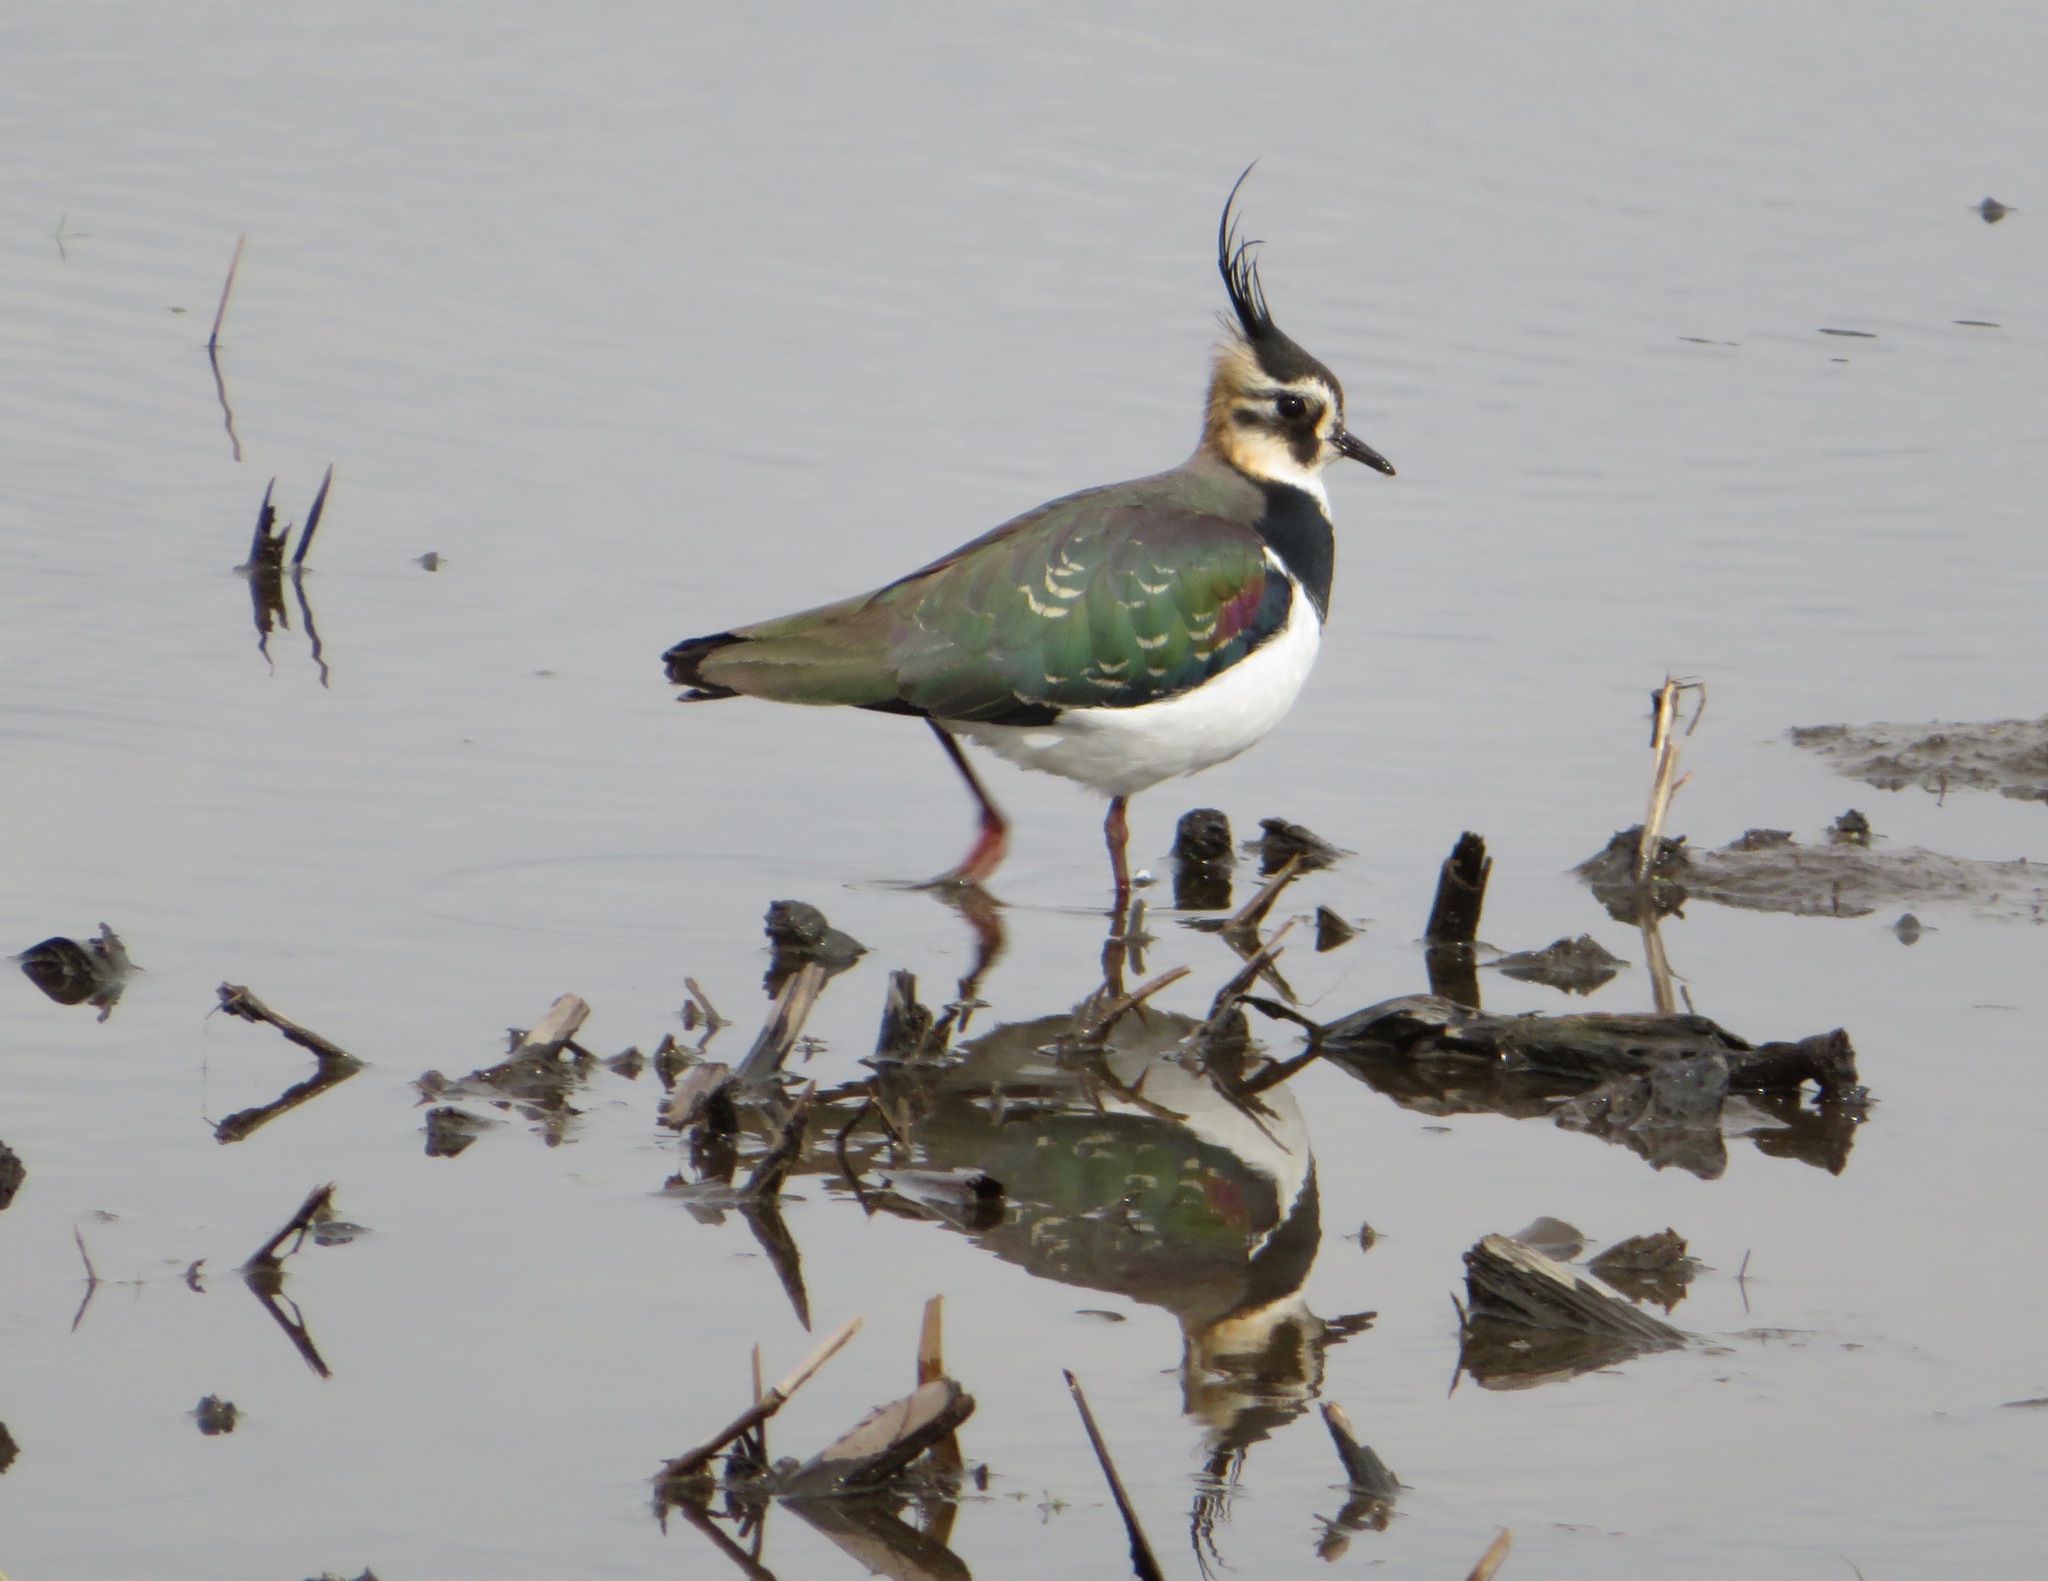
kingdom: Animalia
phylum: Chordata
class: Aves
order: Charadriiformes
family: Charadriidae
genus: Vanellus
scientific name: Vanellus vanellus
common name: Northern lapwing
